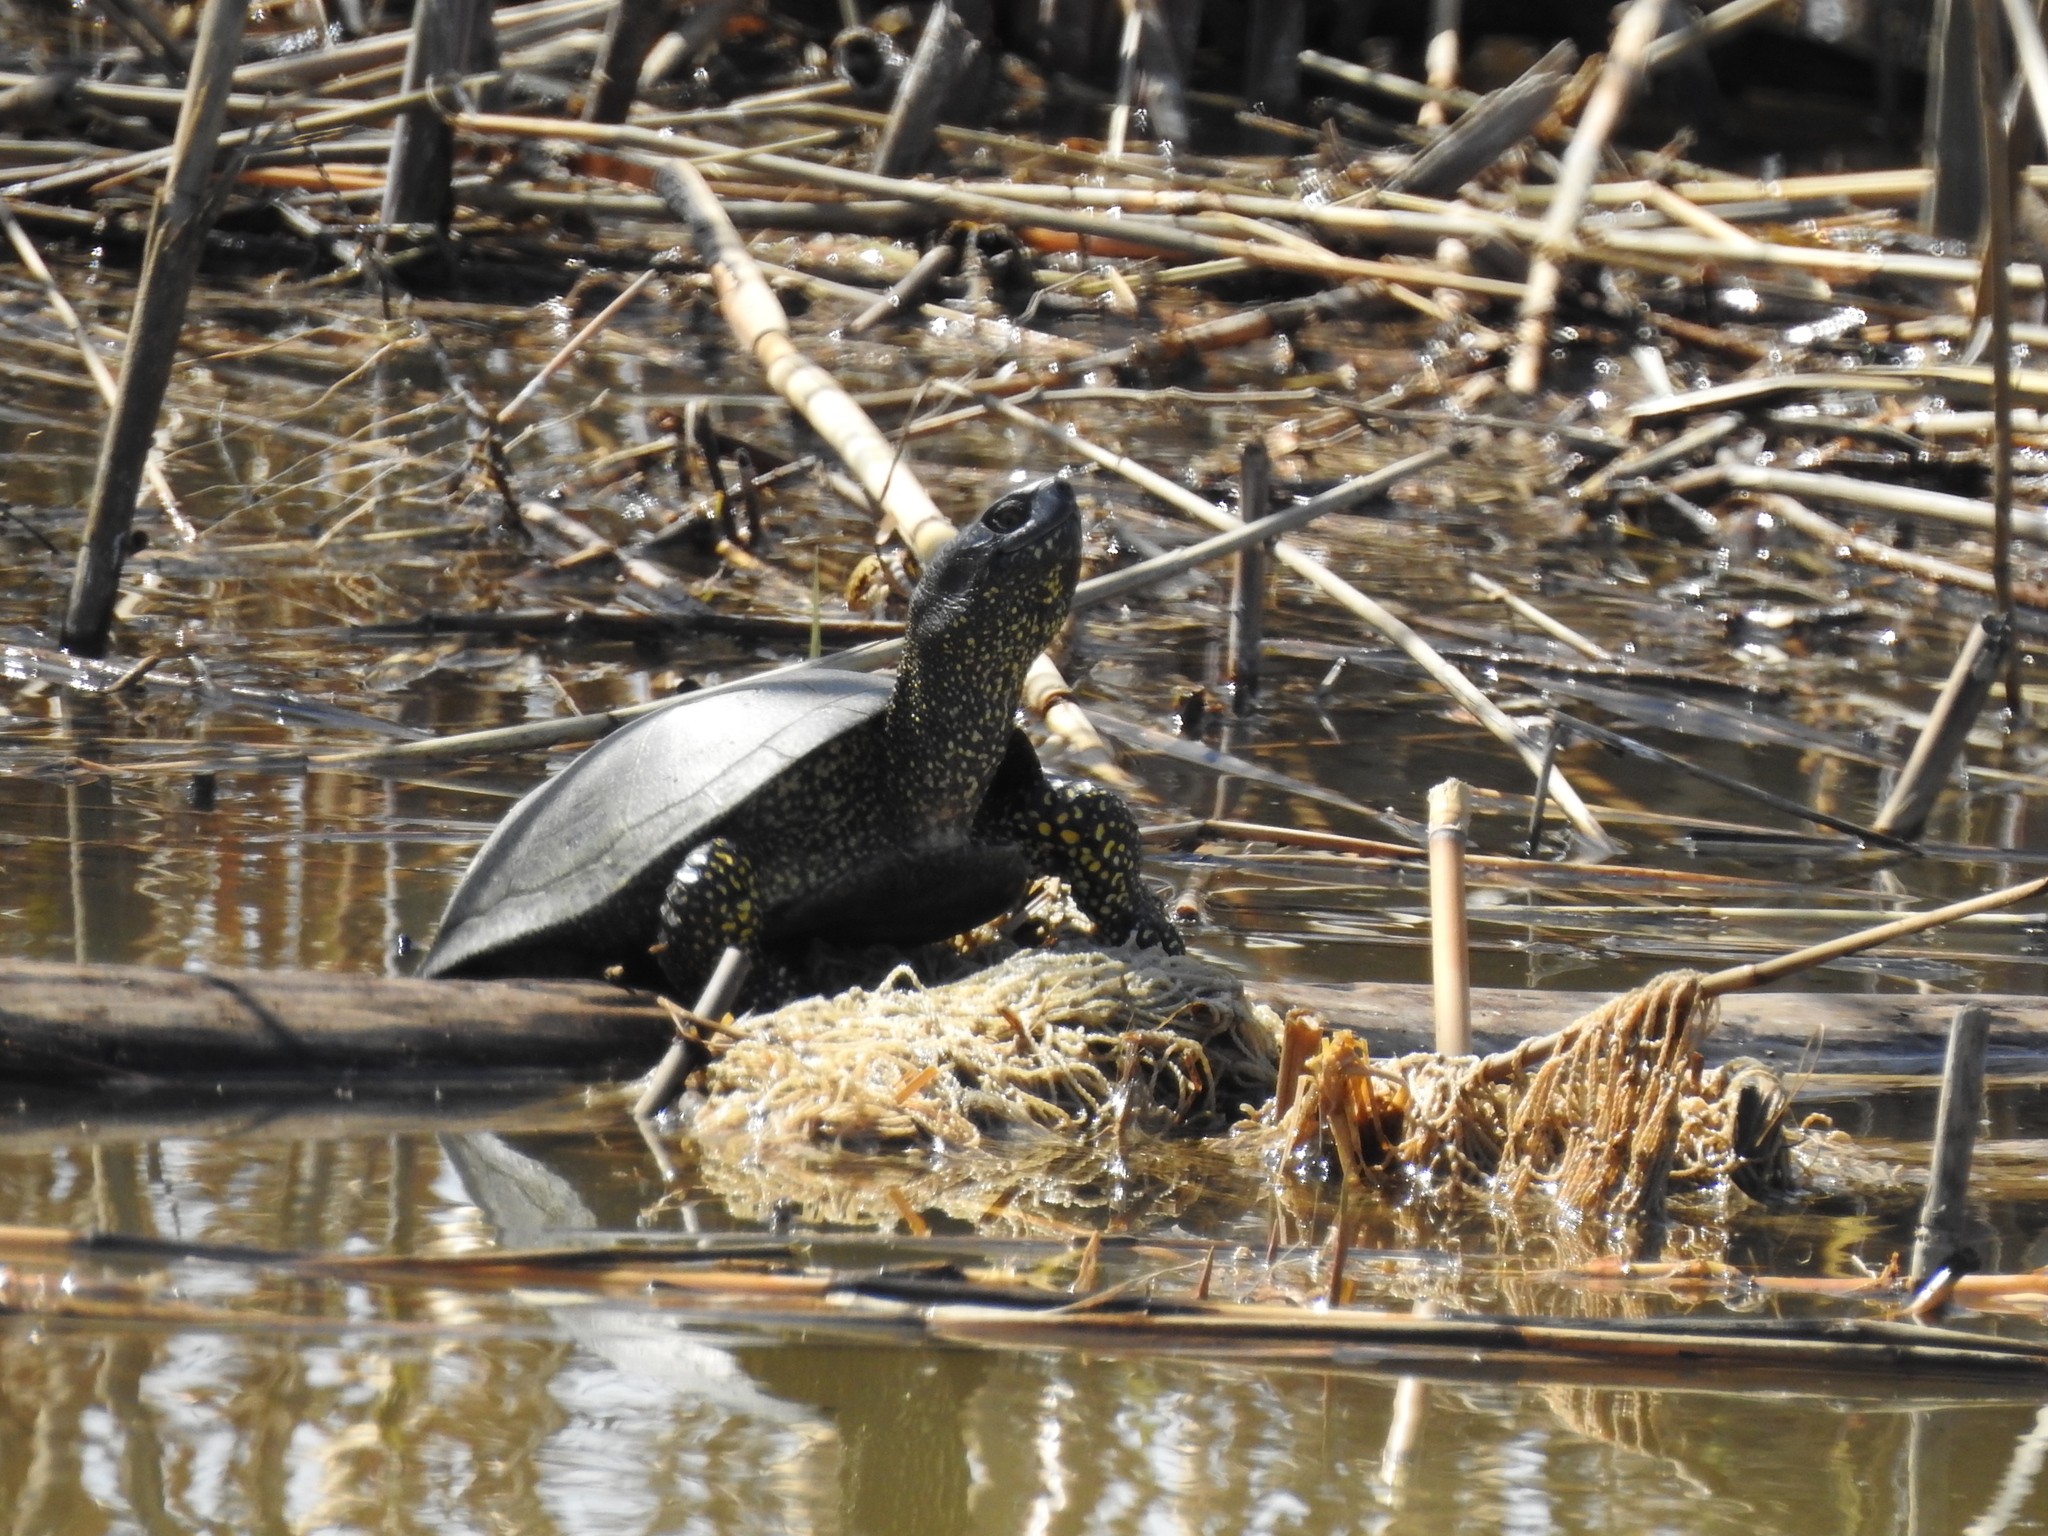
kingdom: Animalia
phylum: Chordata
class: Testudines
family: Emydidae
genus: Emys
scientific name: Emys orbicularis
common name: European pond turtle
